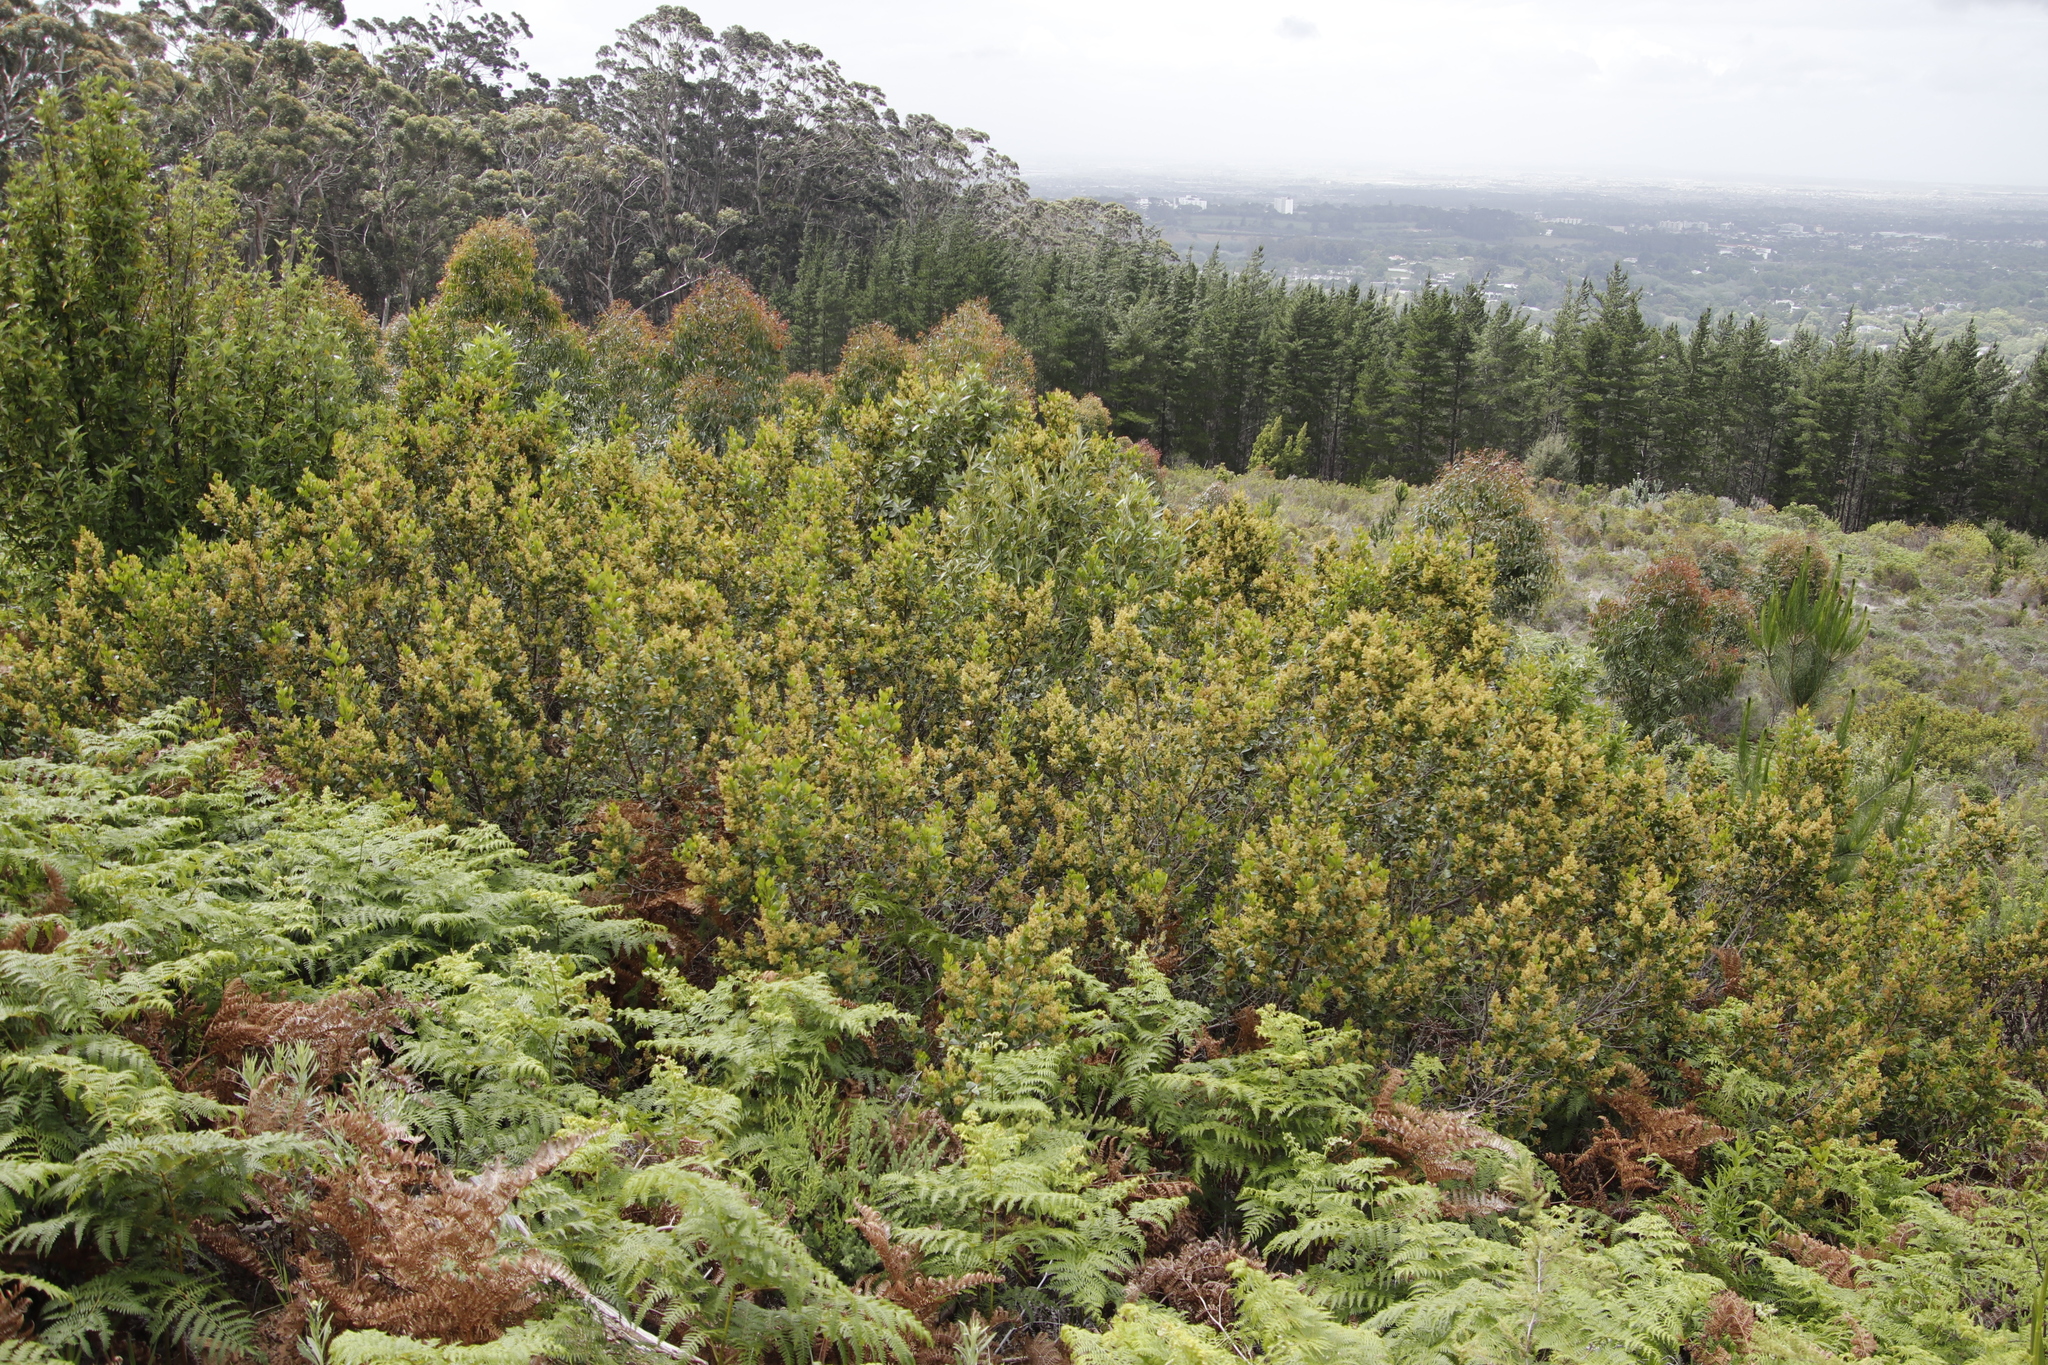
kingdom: Plantae
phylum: Tracheophyta
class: Magnoliopsida
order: Sapindales
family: Anacardiaceae
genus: Searsia
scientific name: Searsia lucida
